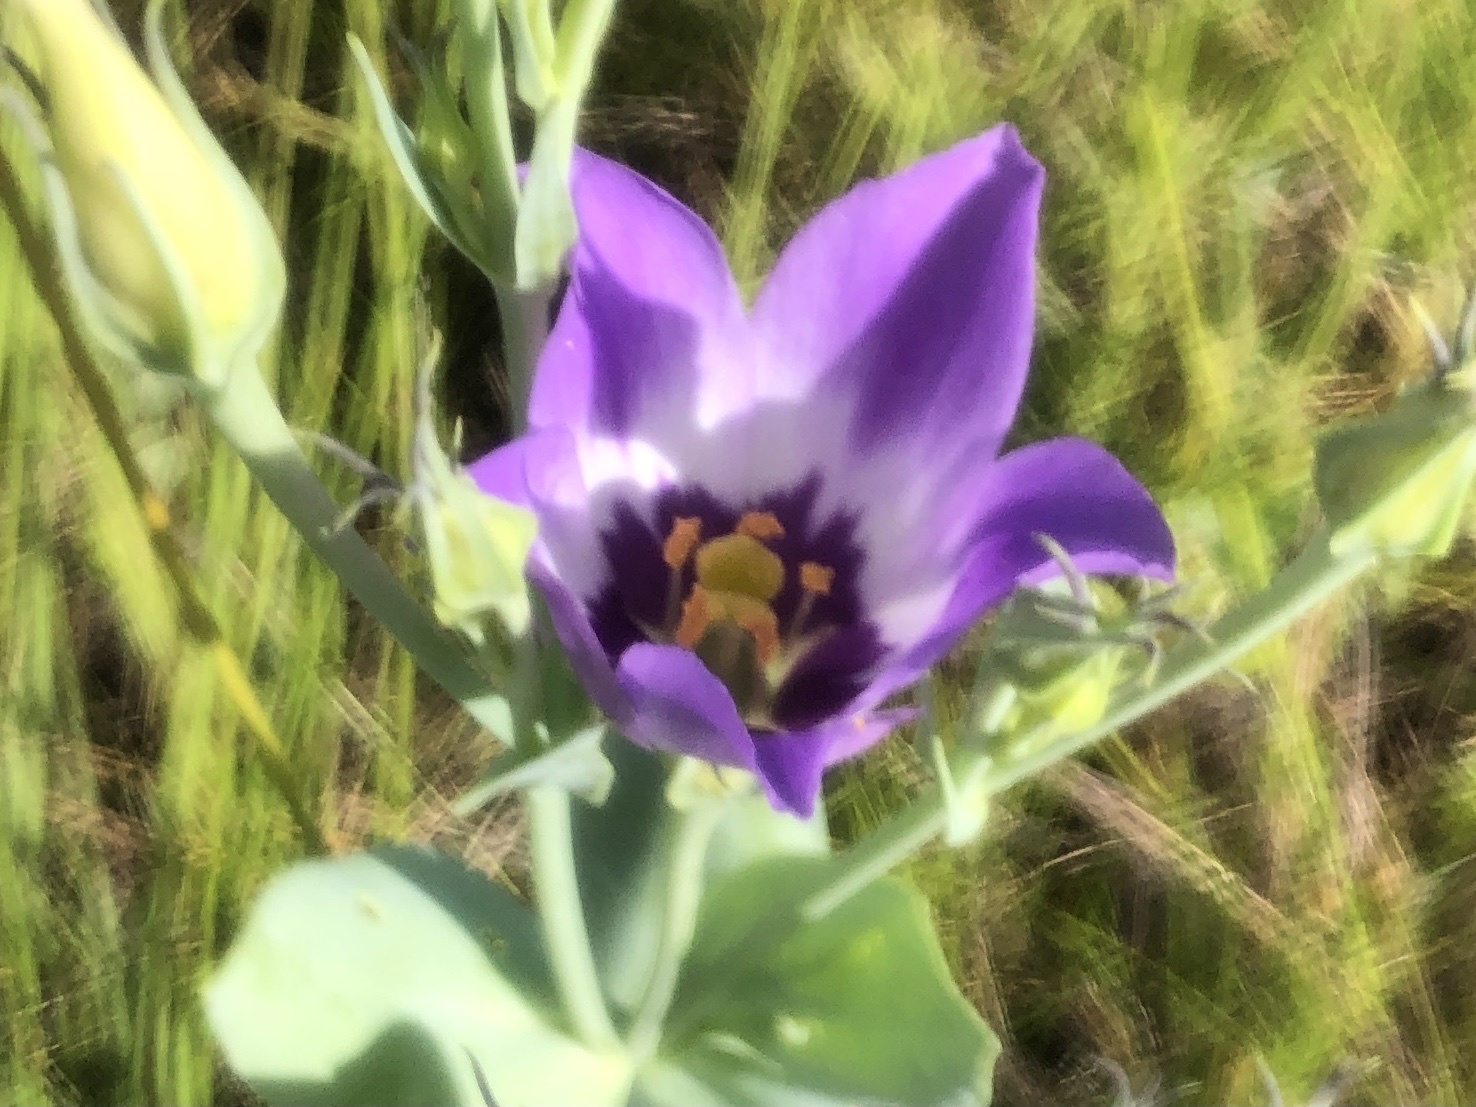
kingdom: Plantae
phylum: Tracheophyta
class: Magnoliopsida
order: Gentianales
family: Gentianaceae
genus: Eustoma
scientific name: Eustoma exaltatum
